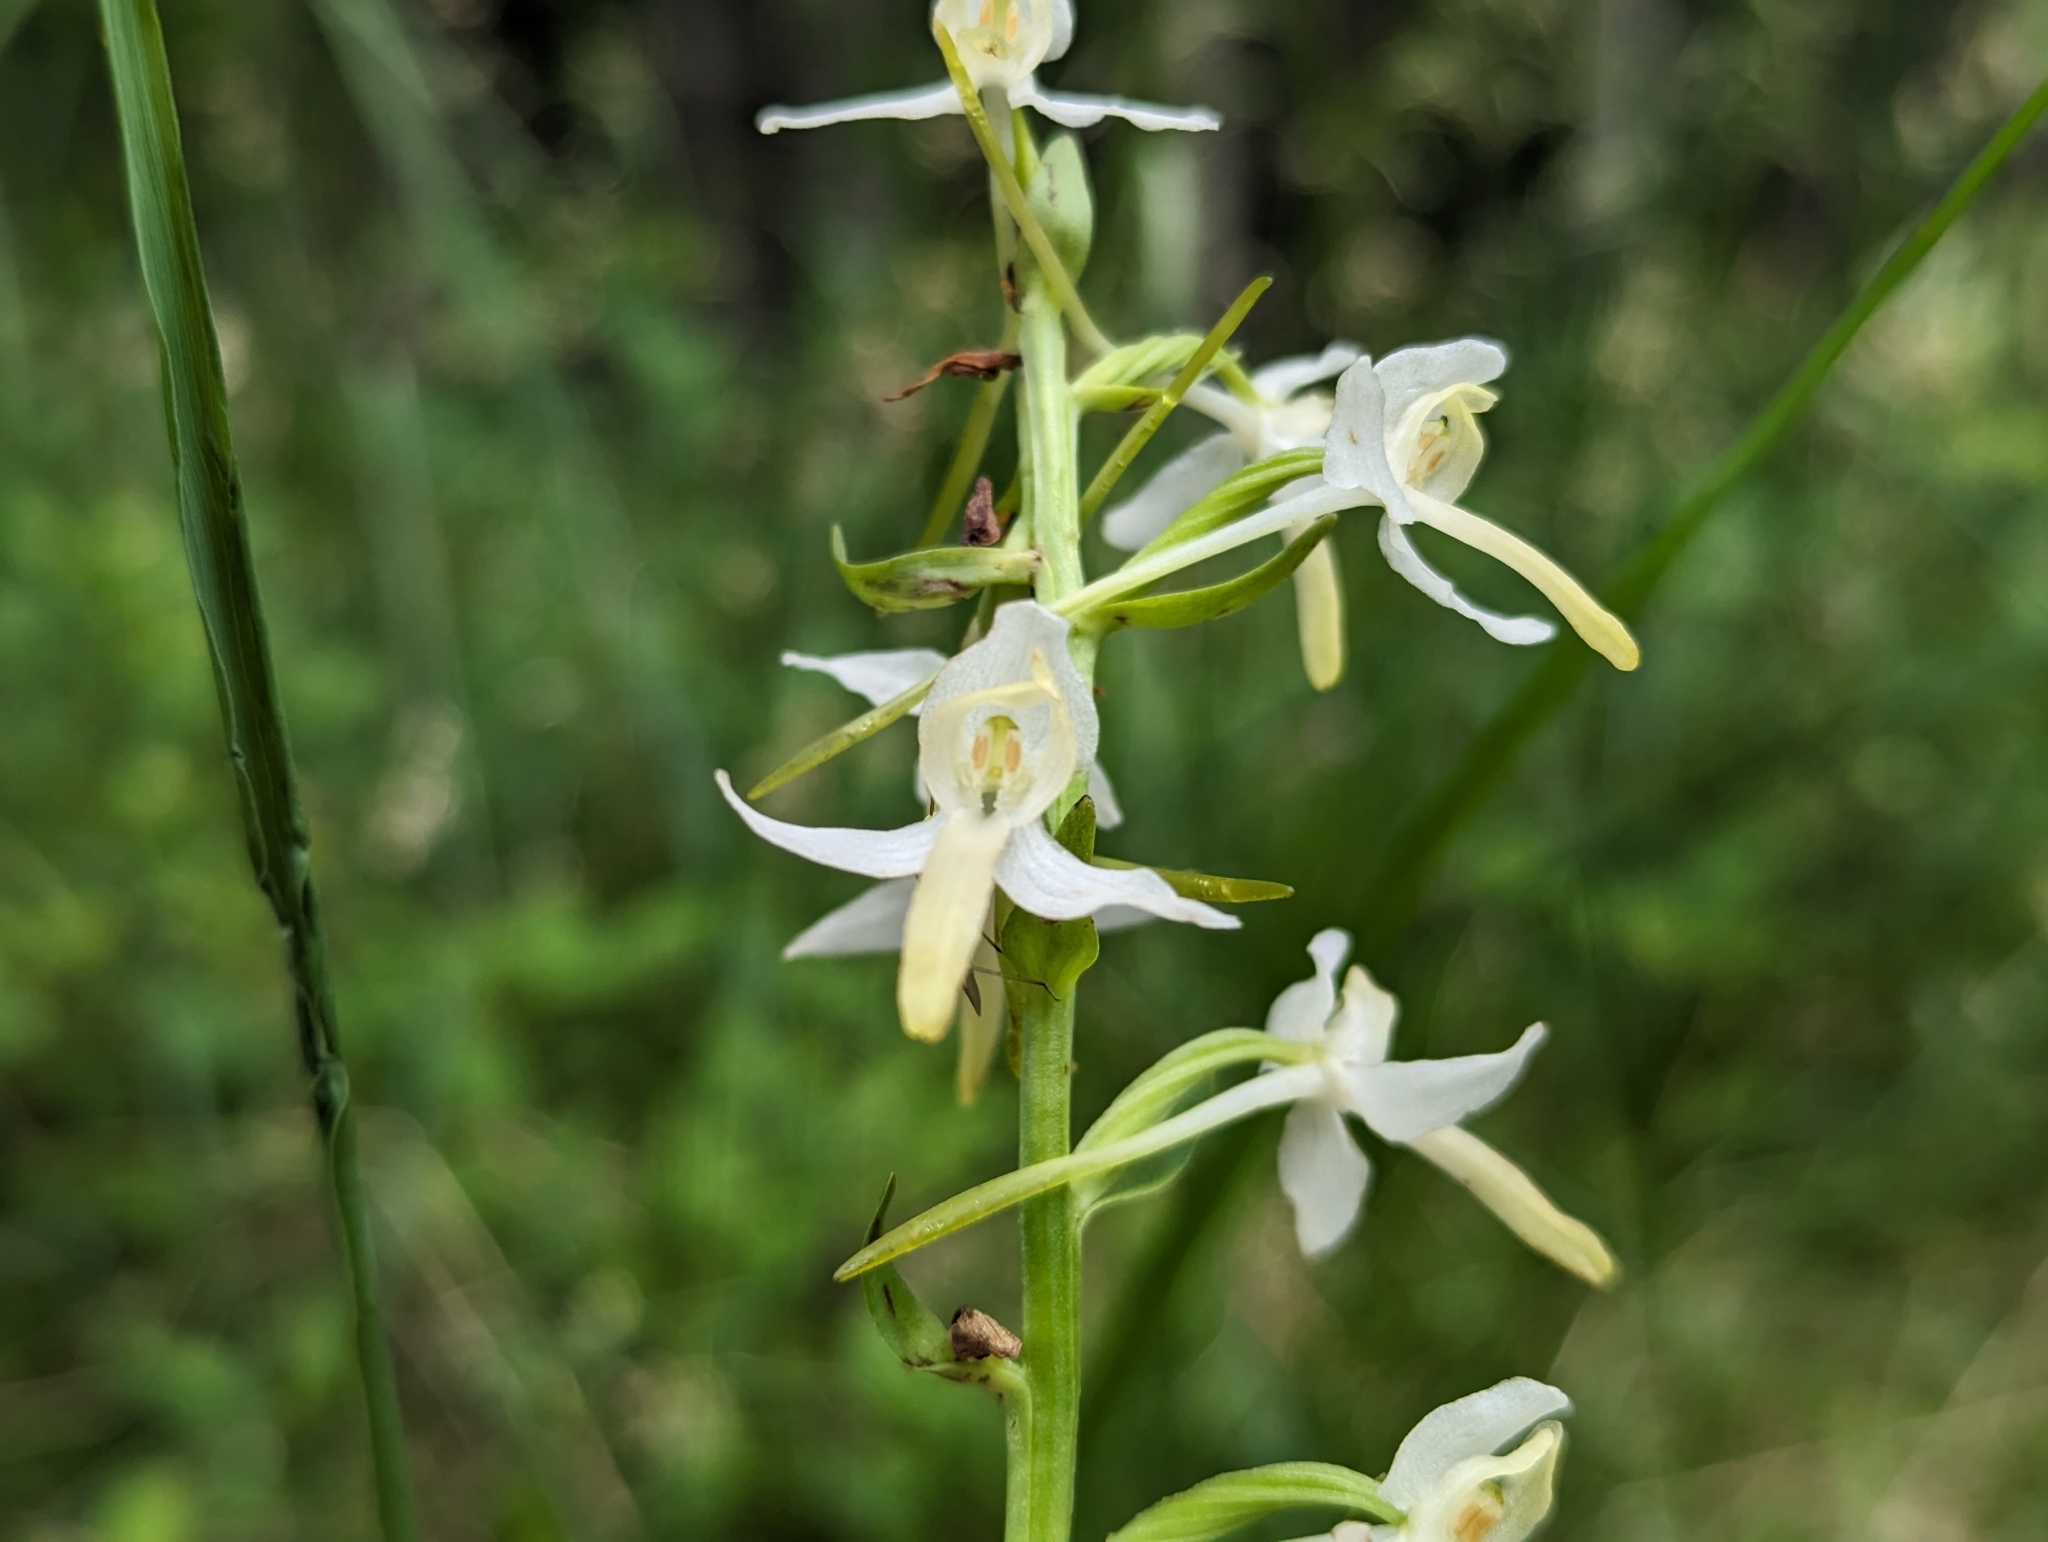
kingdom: Plantae
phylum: Tracheophyta
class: Liliopsida
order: Asparagales
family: Orchidaceae
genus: Platanthera
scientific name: Platanthera bifolia
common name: Lesser butterfly-orchid
